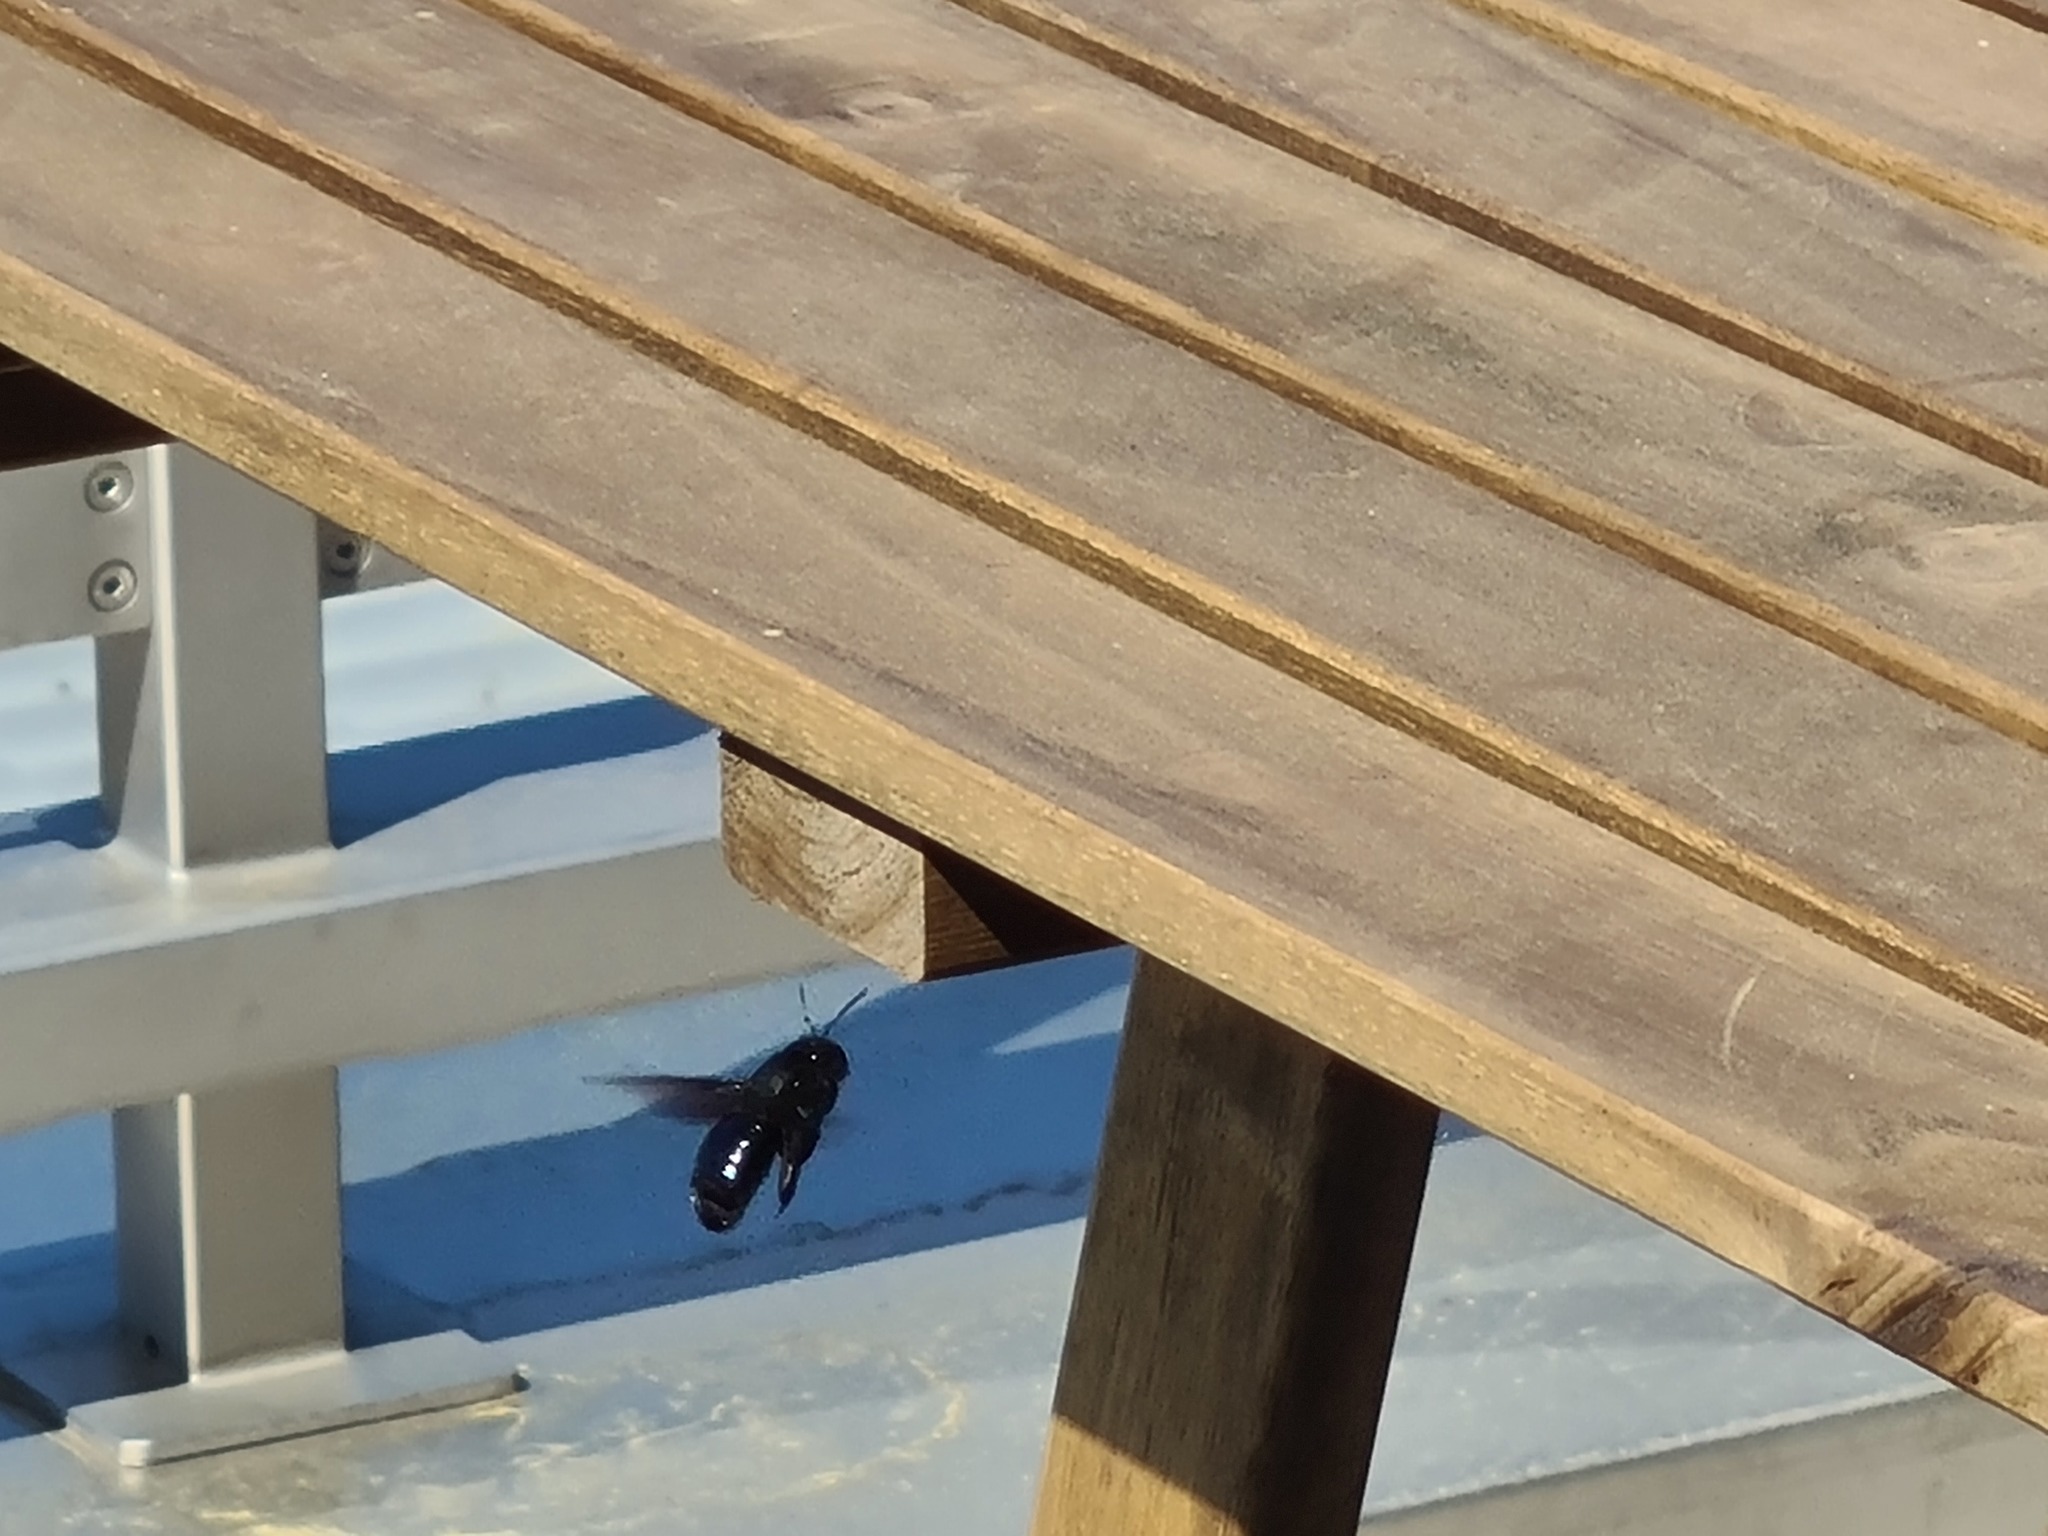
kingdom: Animalia
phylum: Arthropoda
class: Insecta
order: Hymenoptera
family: Apidae
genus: Xylocopa
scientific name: Xylocopa violacea
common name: Violet carpenter bee
